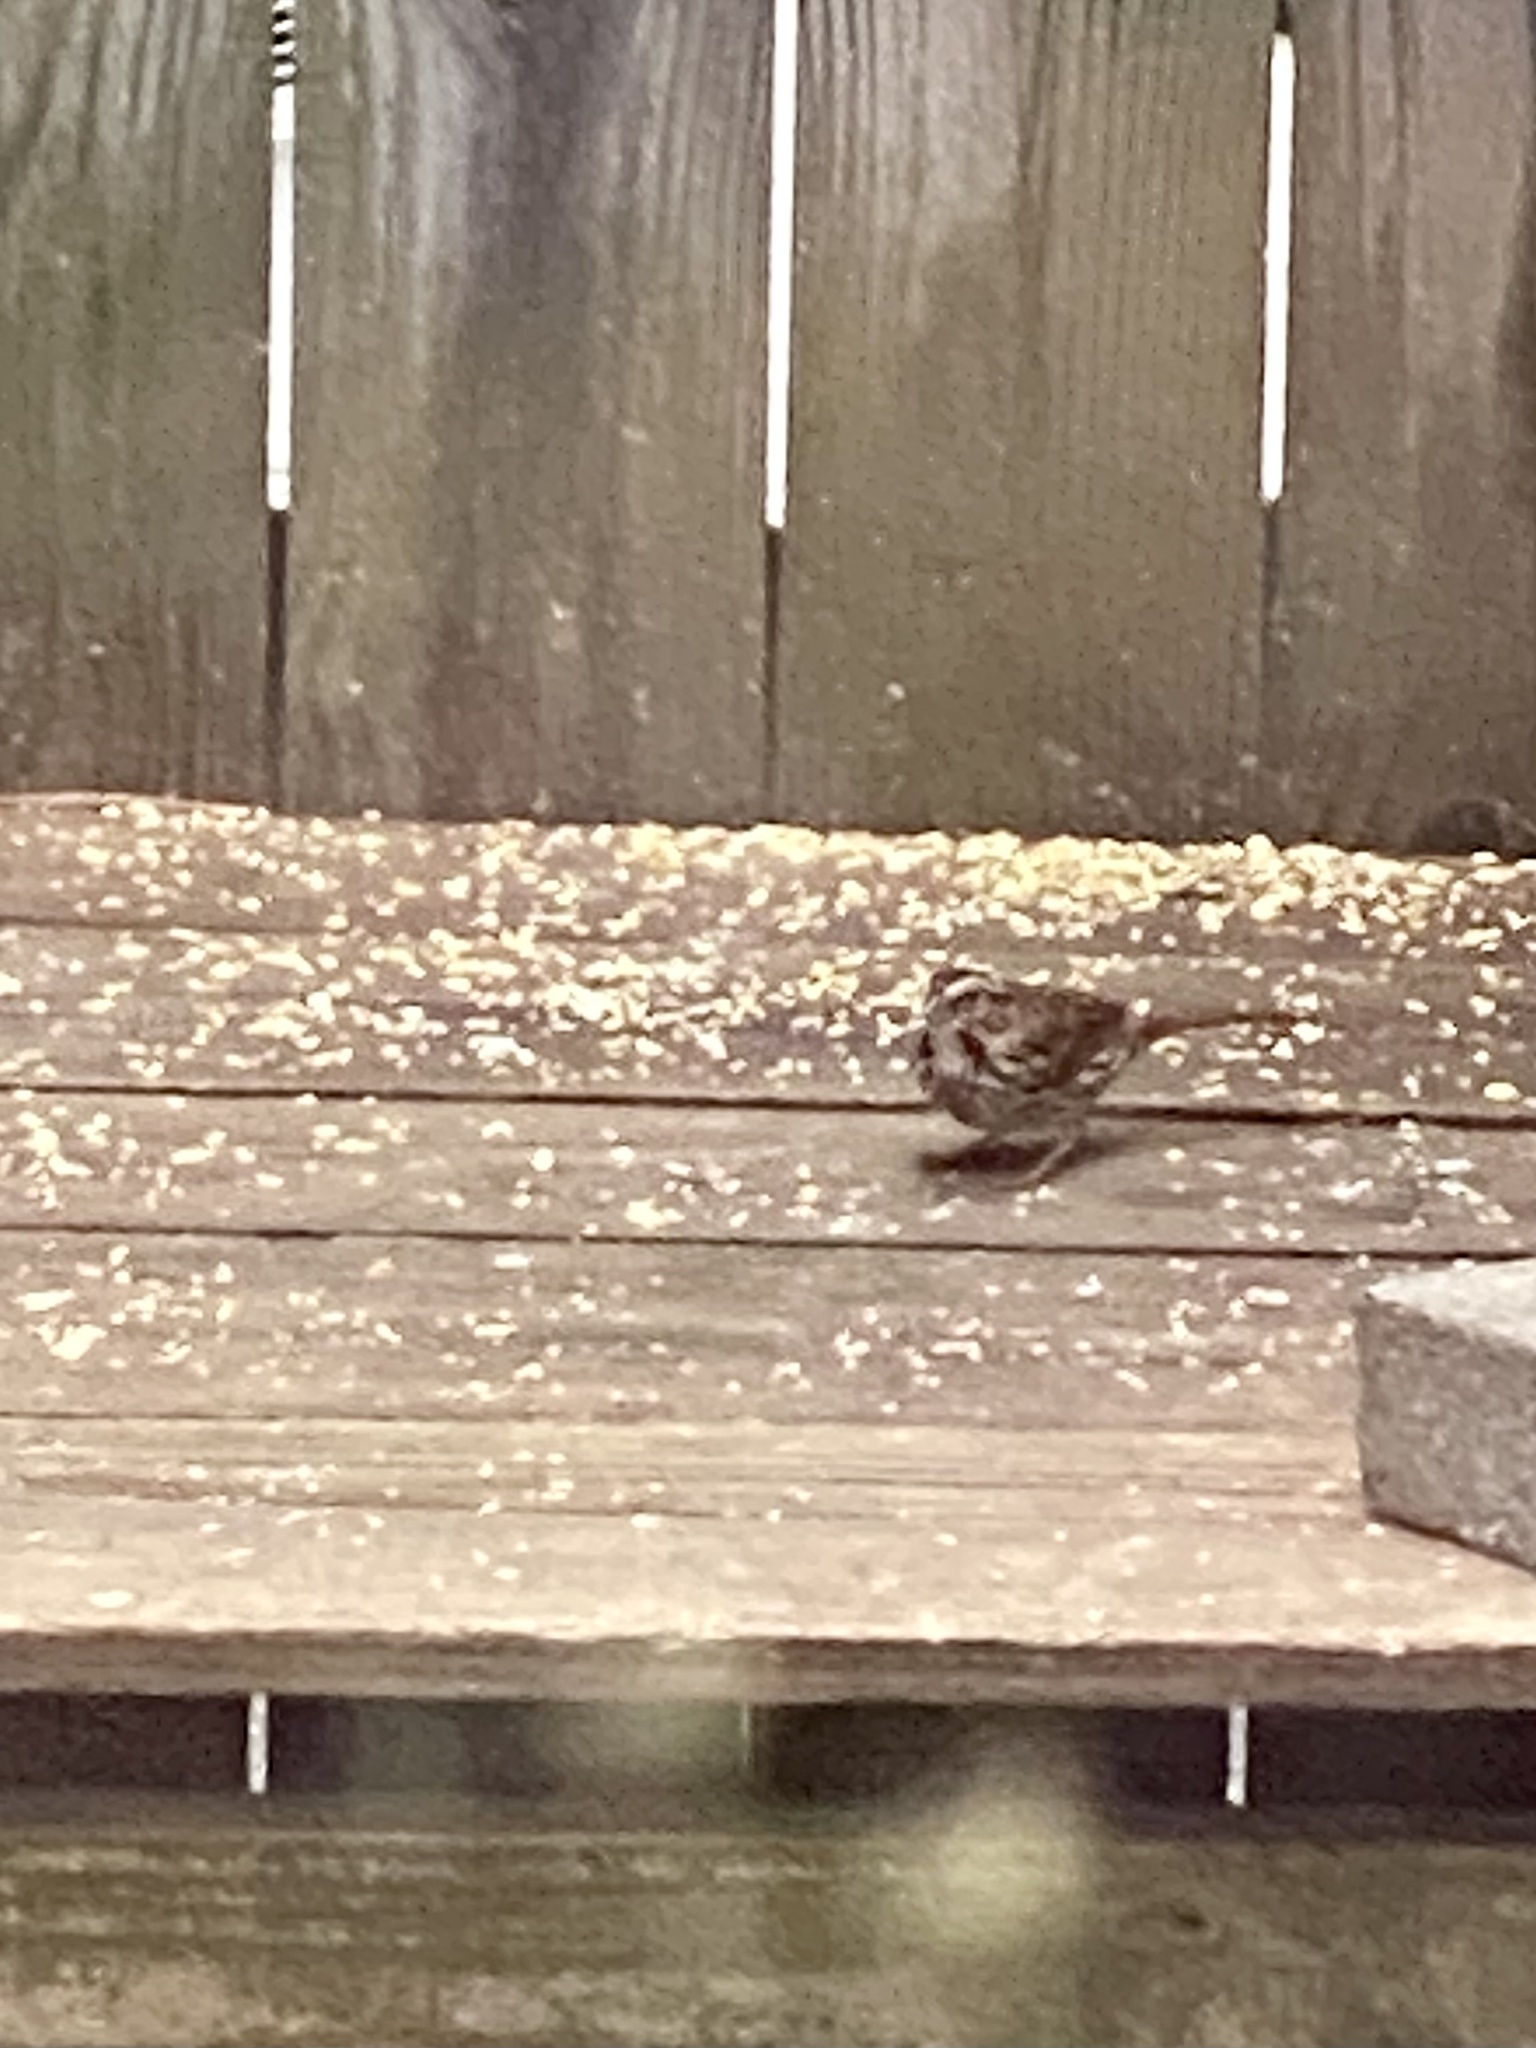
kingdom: Animalia
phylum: Chordata
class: Aves
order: Passeriformes
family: Passerellidae
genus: Melospiza
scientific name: Melospiza melodia
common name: Song sparrow
